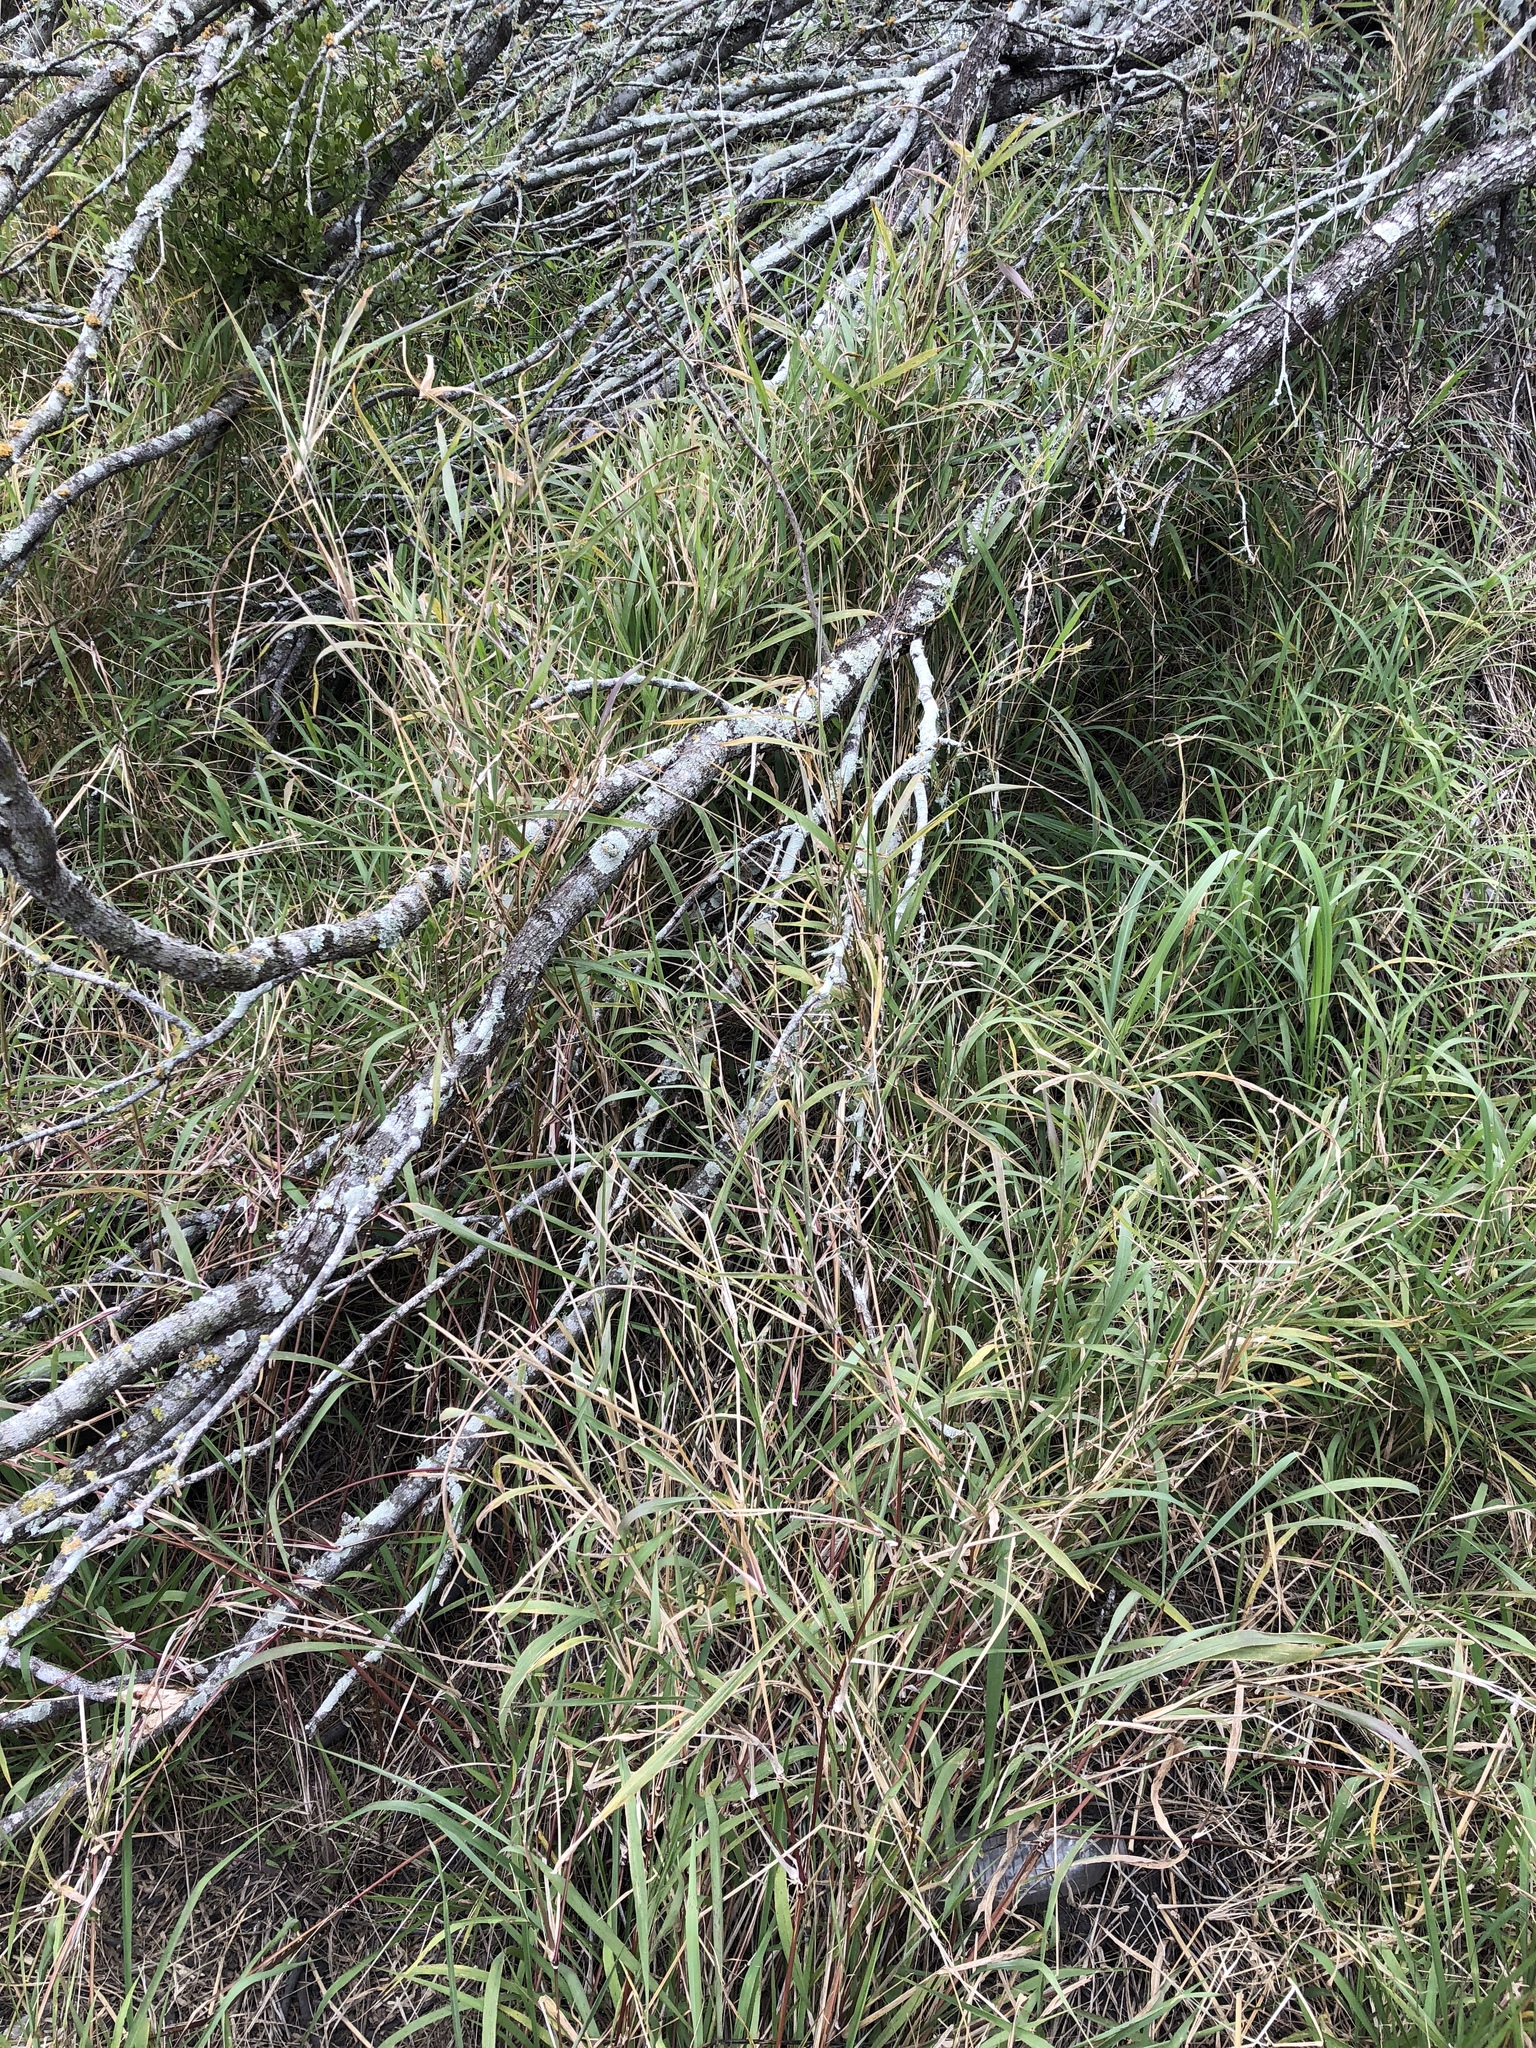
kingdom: Plantae
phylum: Tracheophyta
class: Liliopsida
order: Poales
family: Poaceae
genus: Megathyrsus
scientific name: Megathyrsus maximus
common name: Guineagrass
